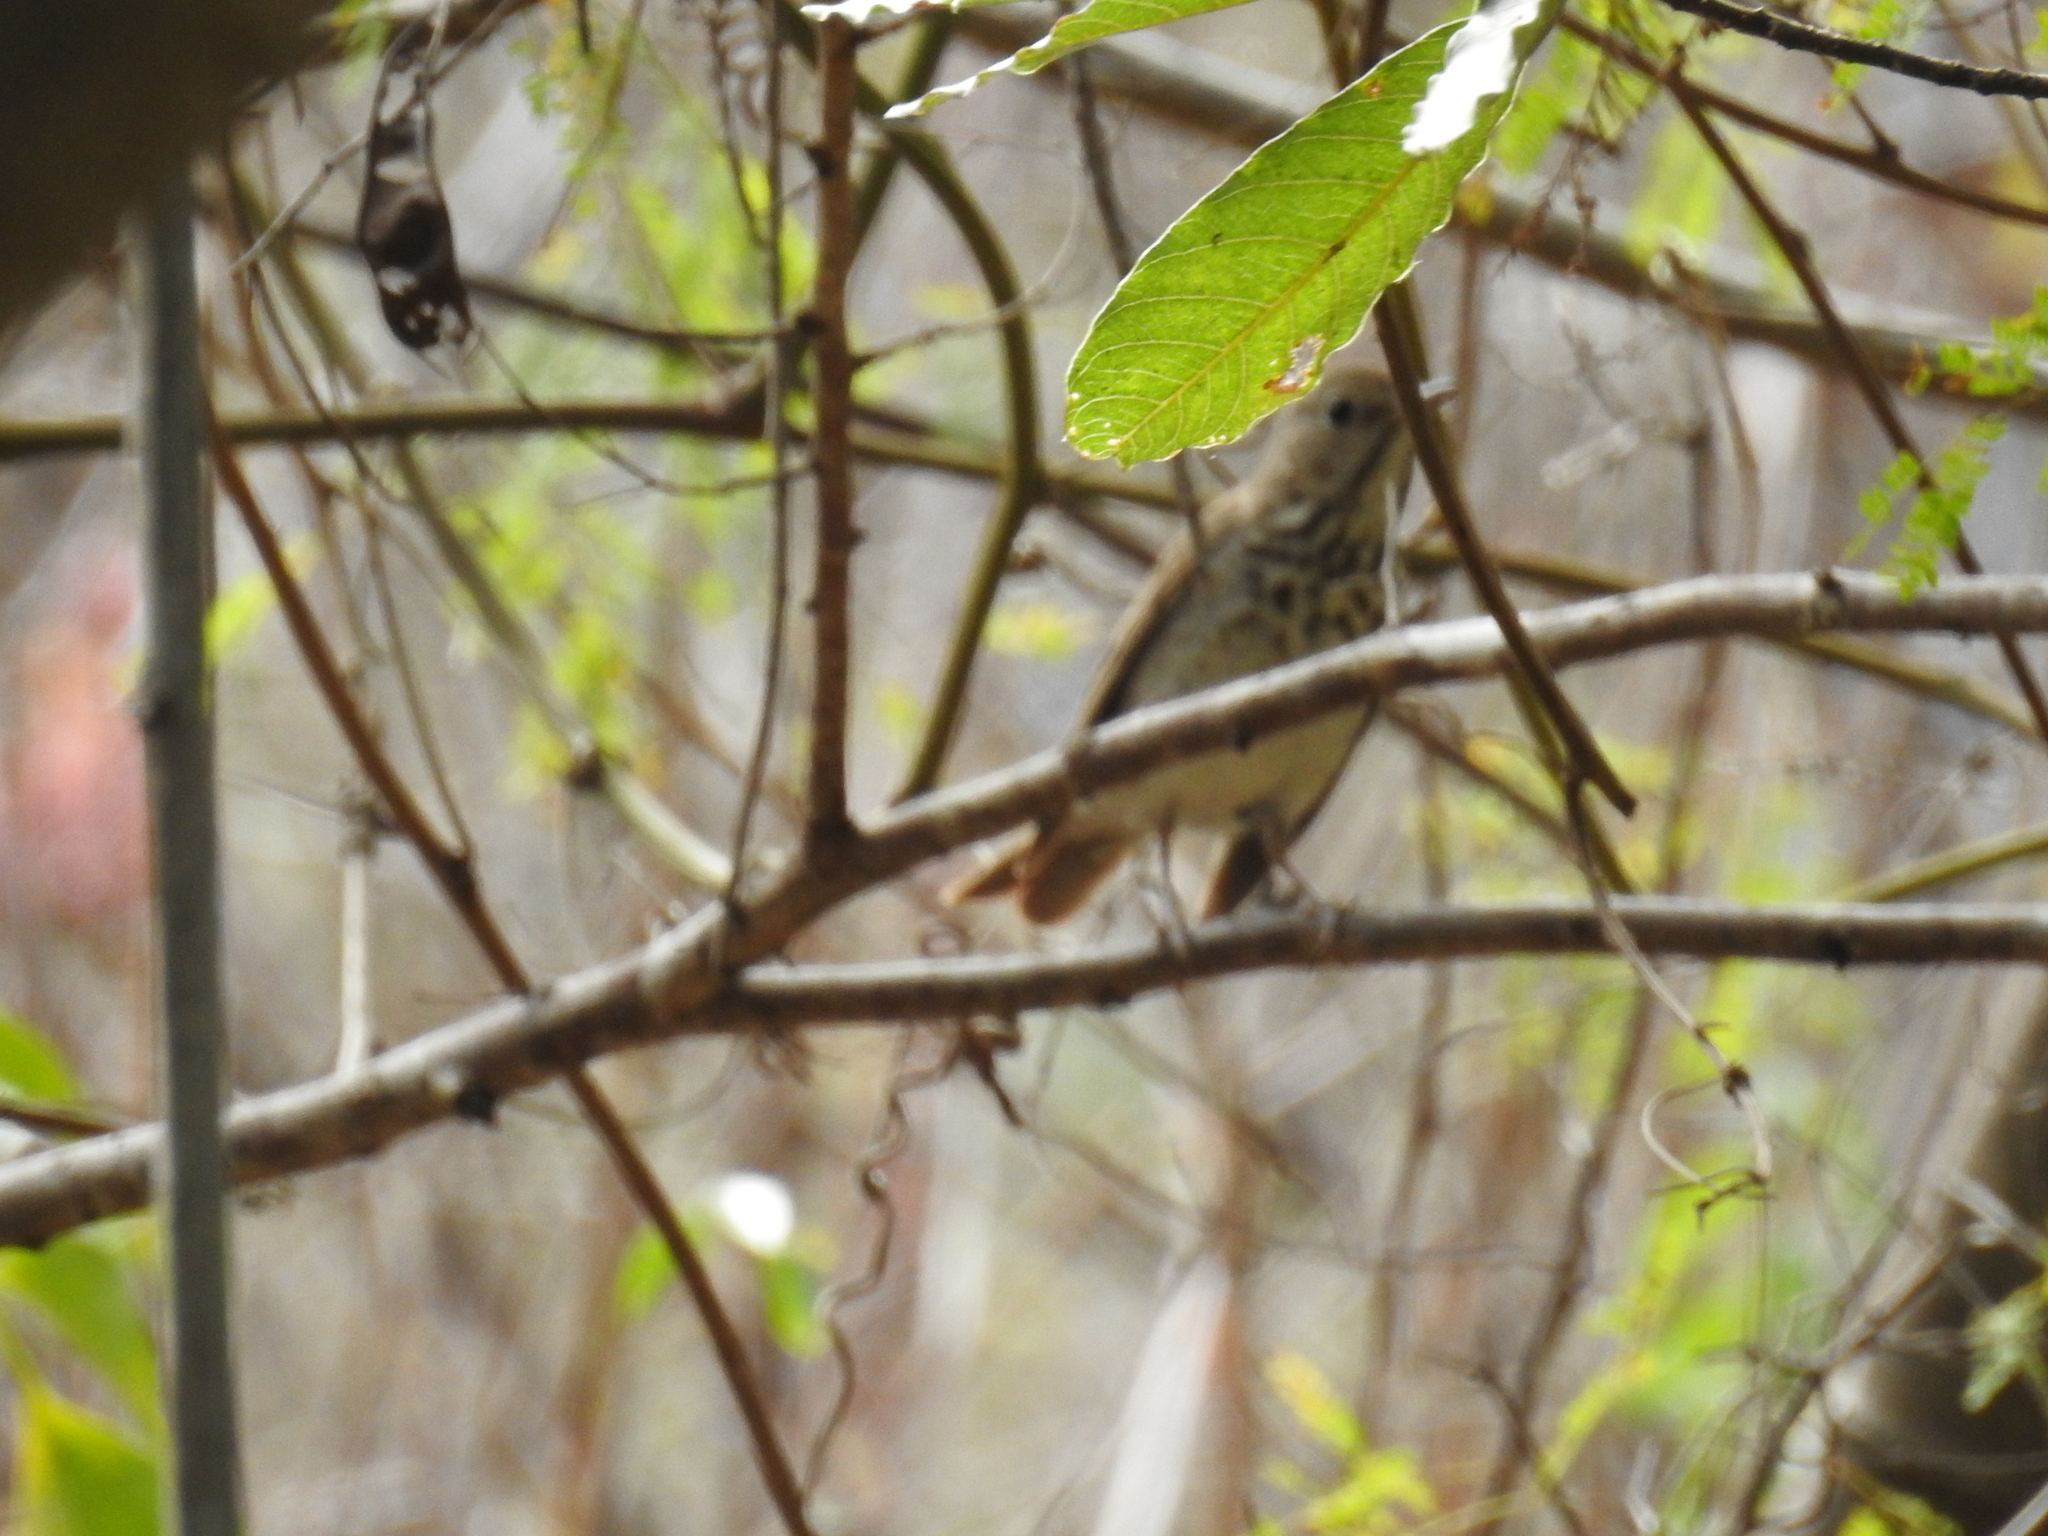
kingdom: Animalia
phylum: Chordata
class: Aves
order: Passeriformes
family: Turdidae
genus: Catharus
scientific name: Catharus guttatus
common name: Hermit thrush
